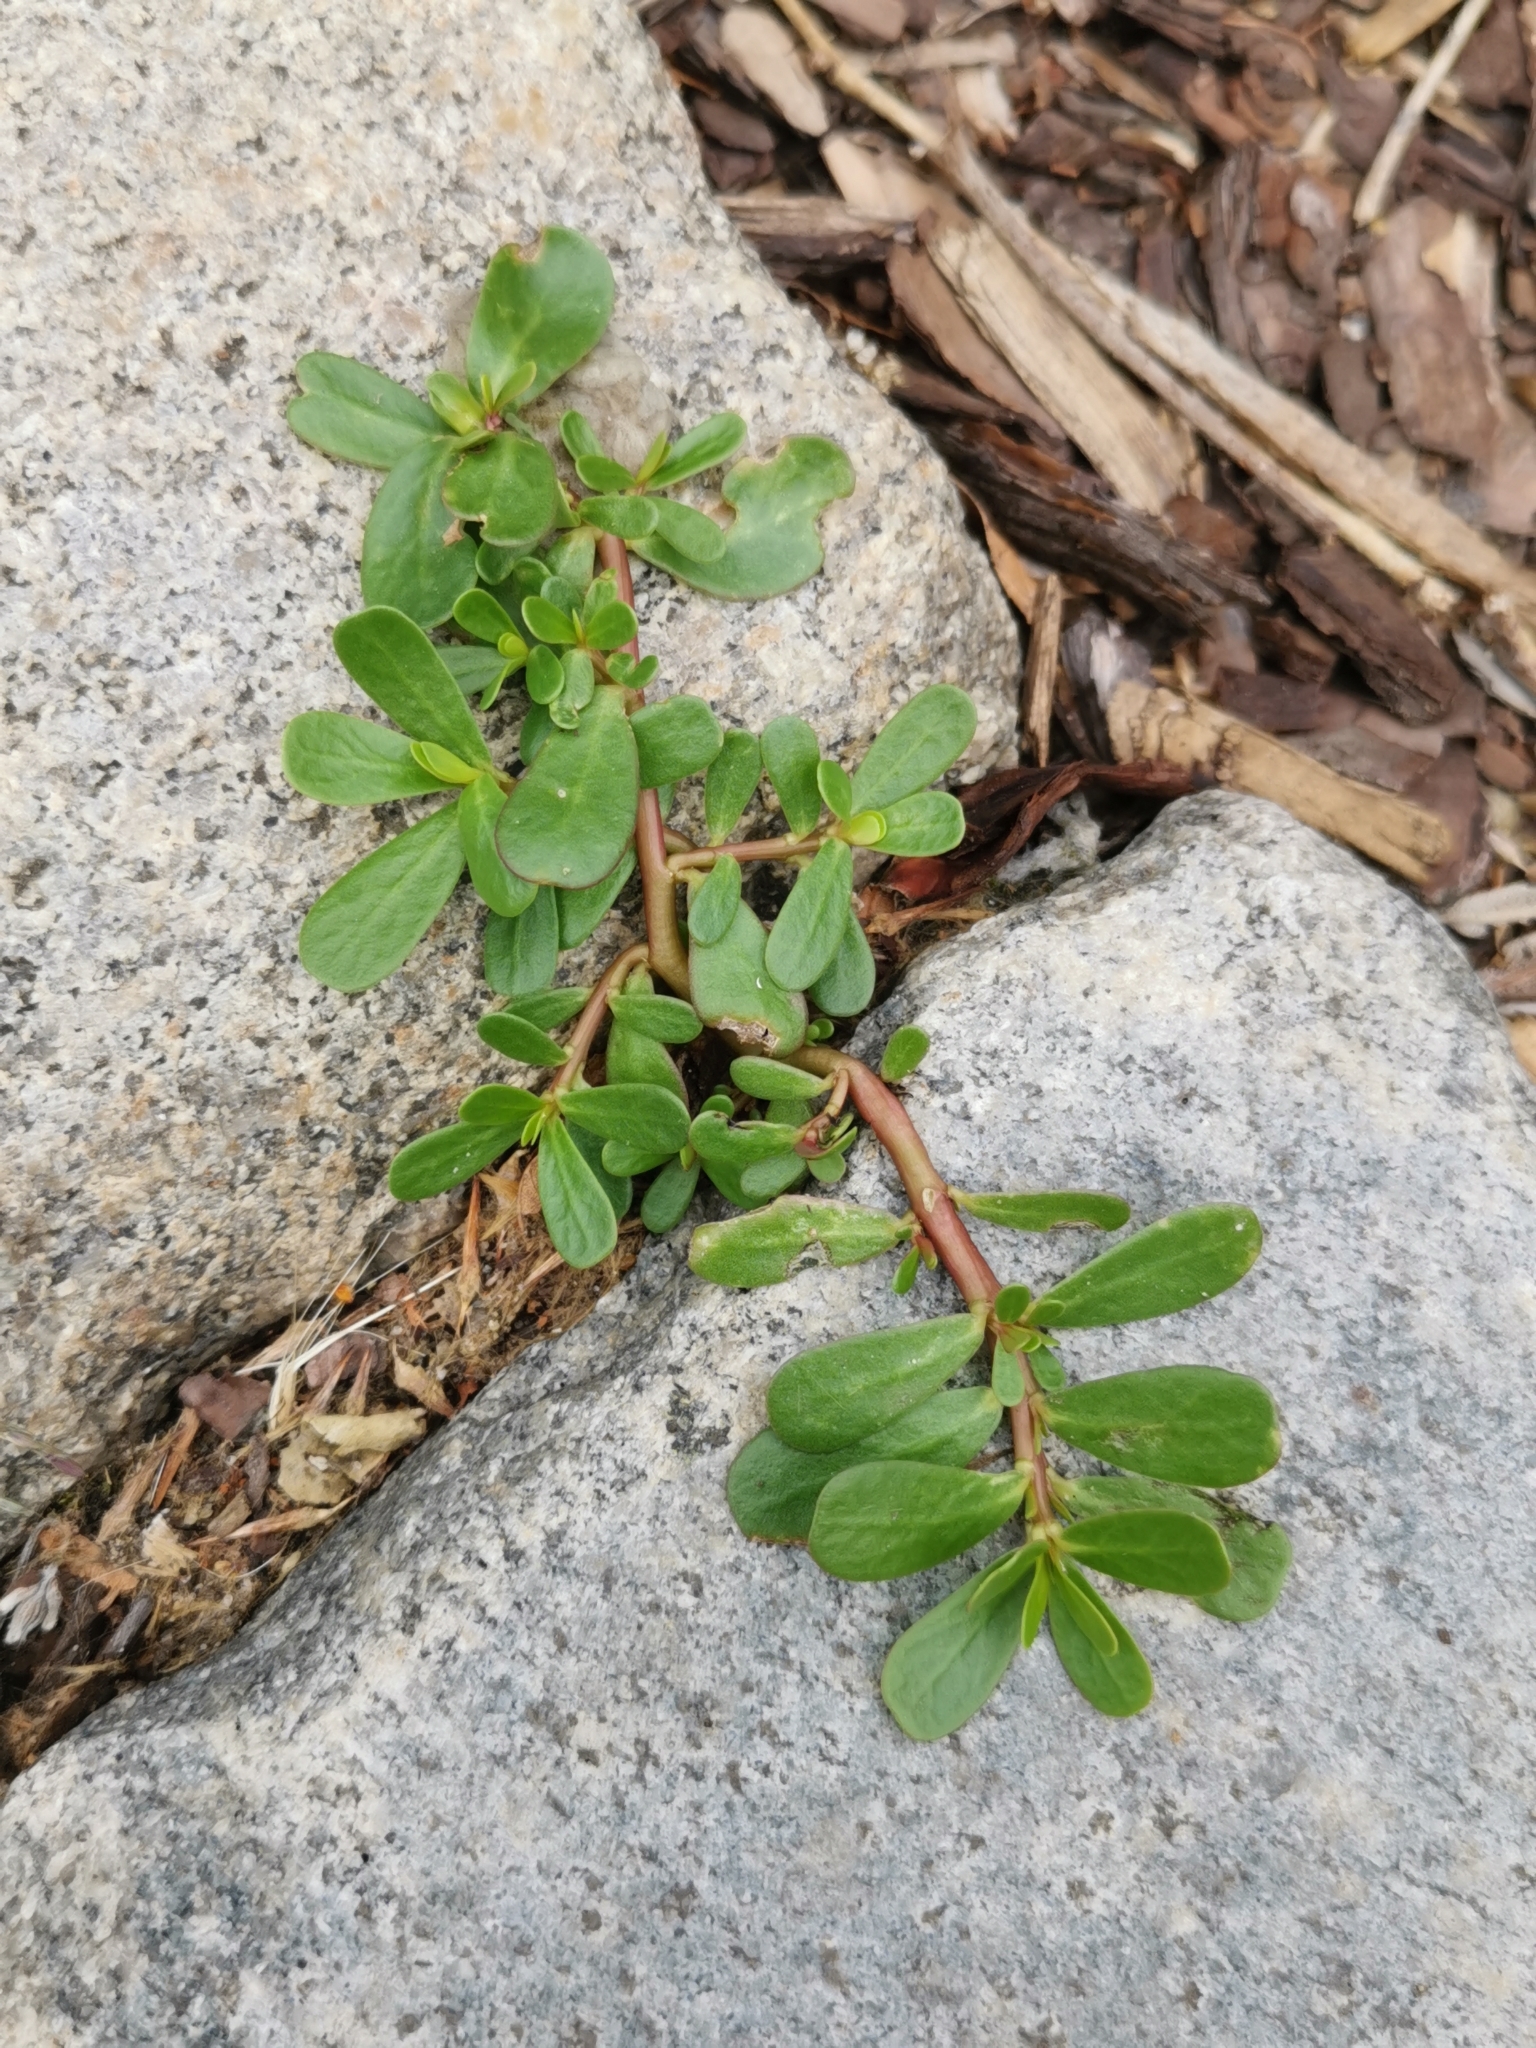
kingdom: Plantae
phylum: Tracheophyta
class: Magnoliopsida
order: Caryophyllales
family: Portulacaceae
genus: Portulaca
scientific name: Portulaca oleracea
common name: Common purslane
